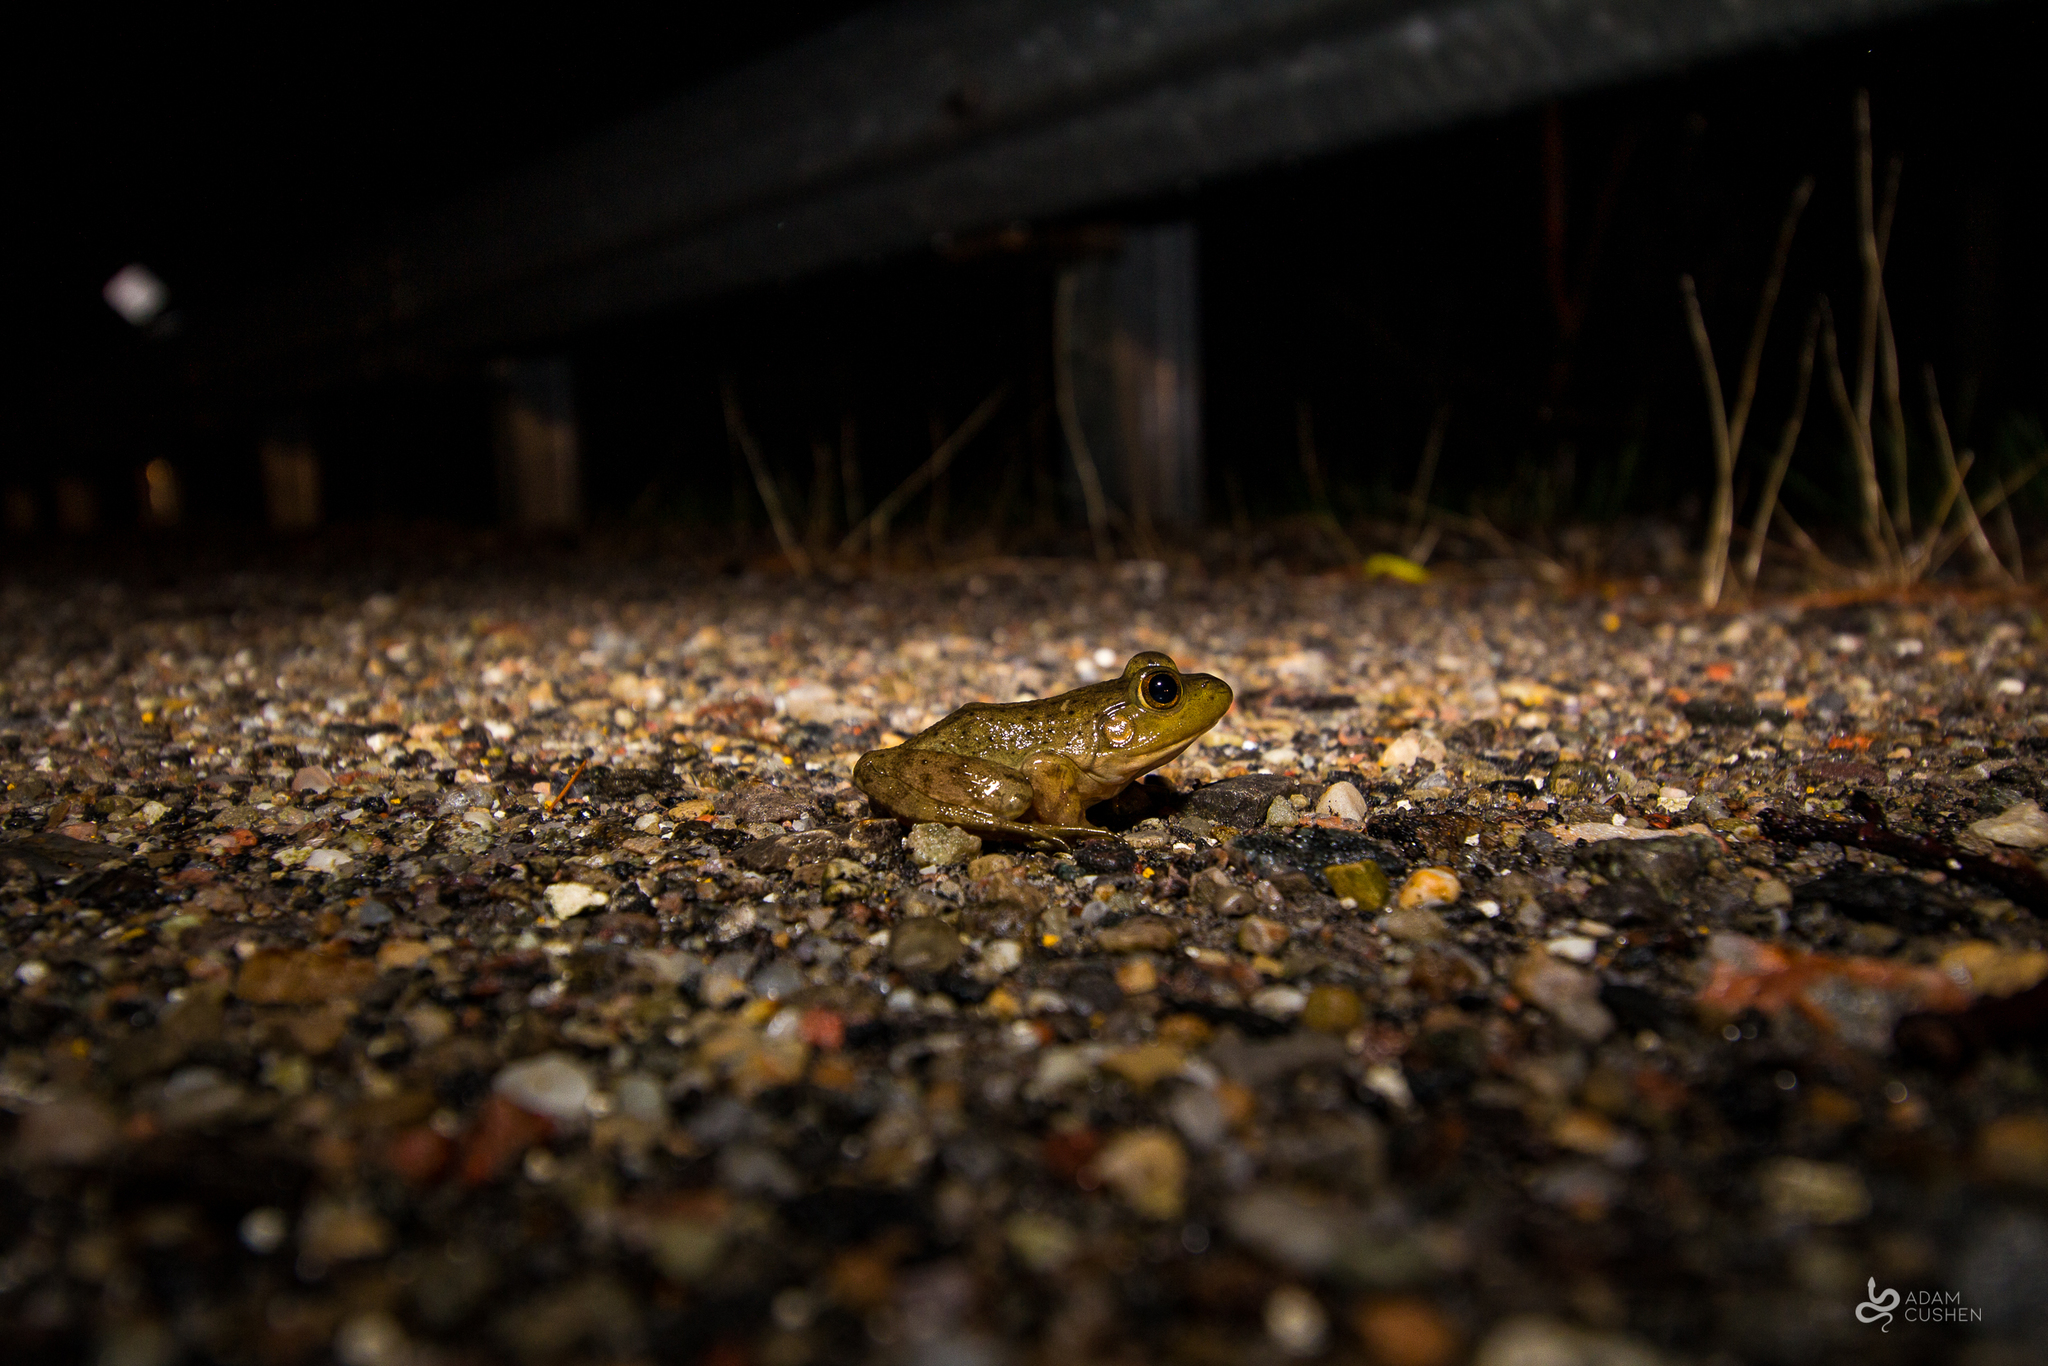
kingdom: Animalia
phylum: Chordata
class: Amphibia
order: Anura
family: Ranidae
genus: Lithobates
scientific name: Lithobates catesbeianus
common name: American bullfrog
